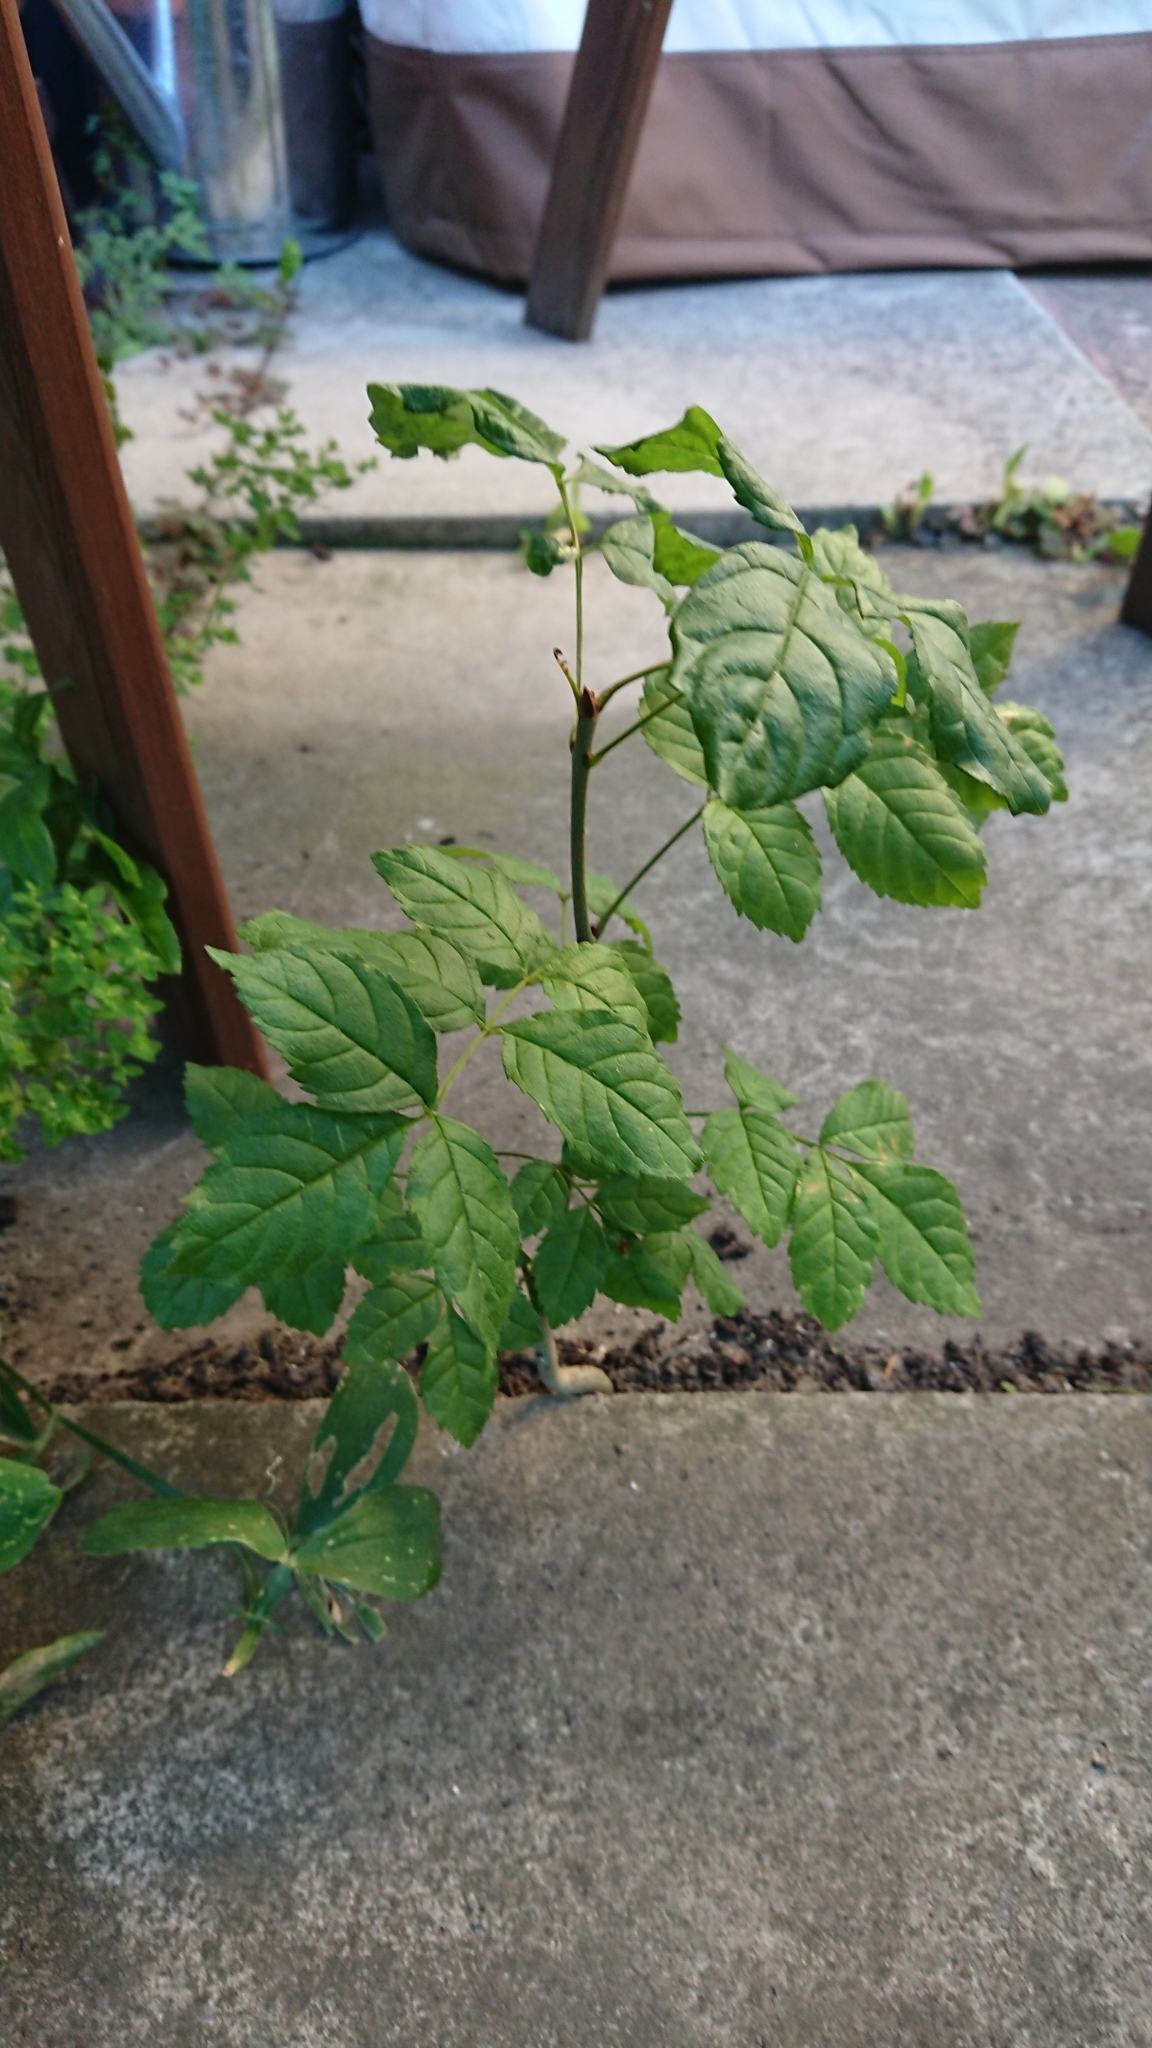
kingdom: Plantae
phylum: Tracheophyta
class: Magnoliopsida
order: Lamiales
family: Oleaceae
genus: Fraxinus
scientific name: Fraxinus excelsior
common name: European ash
